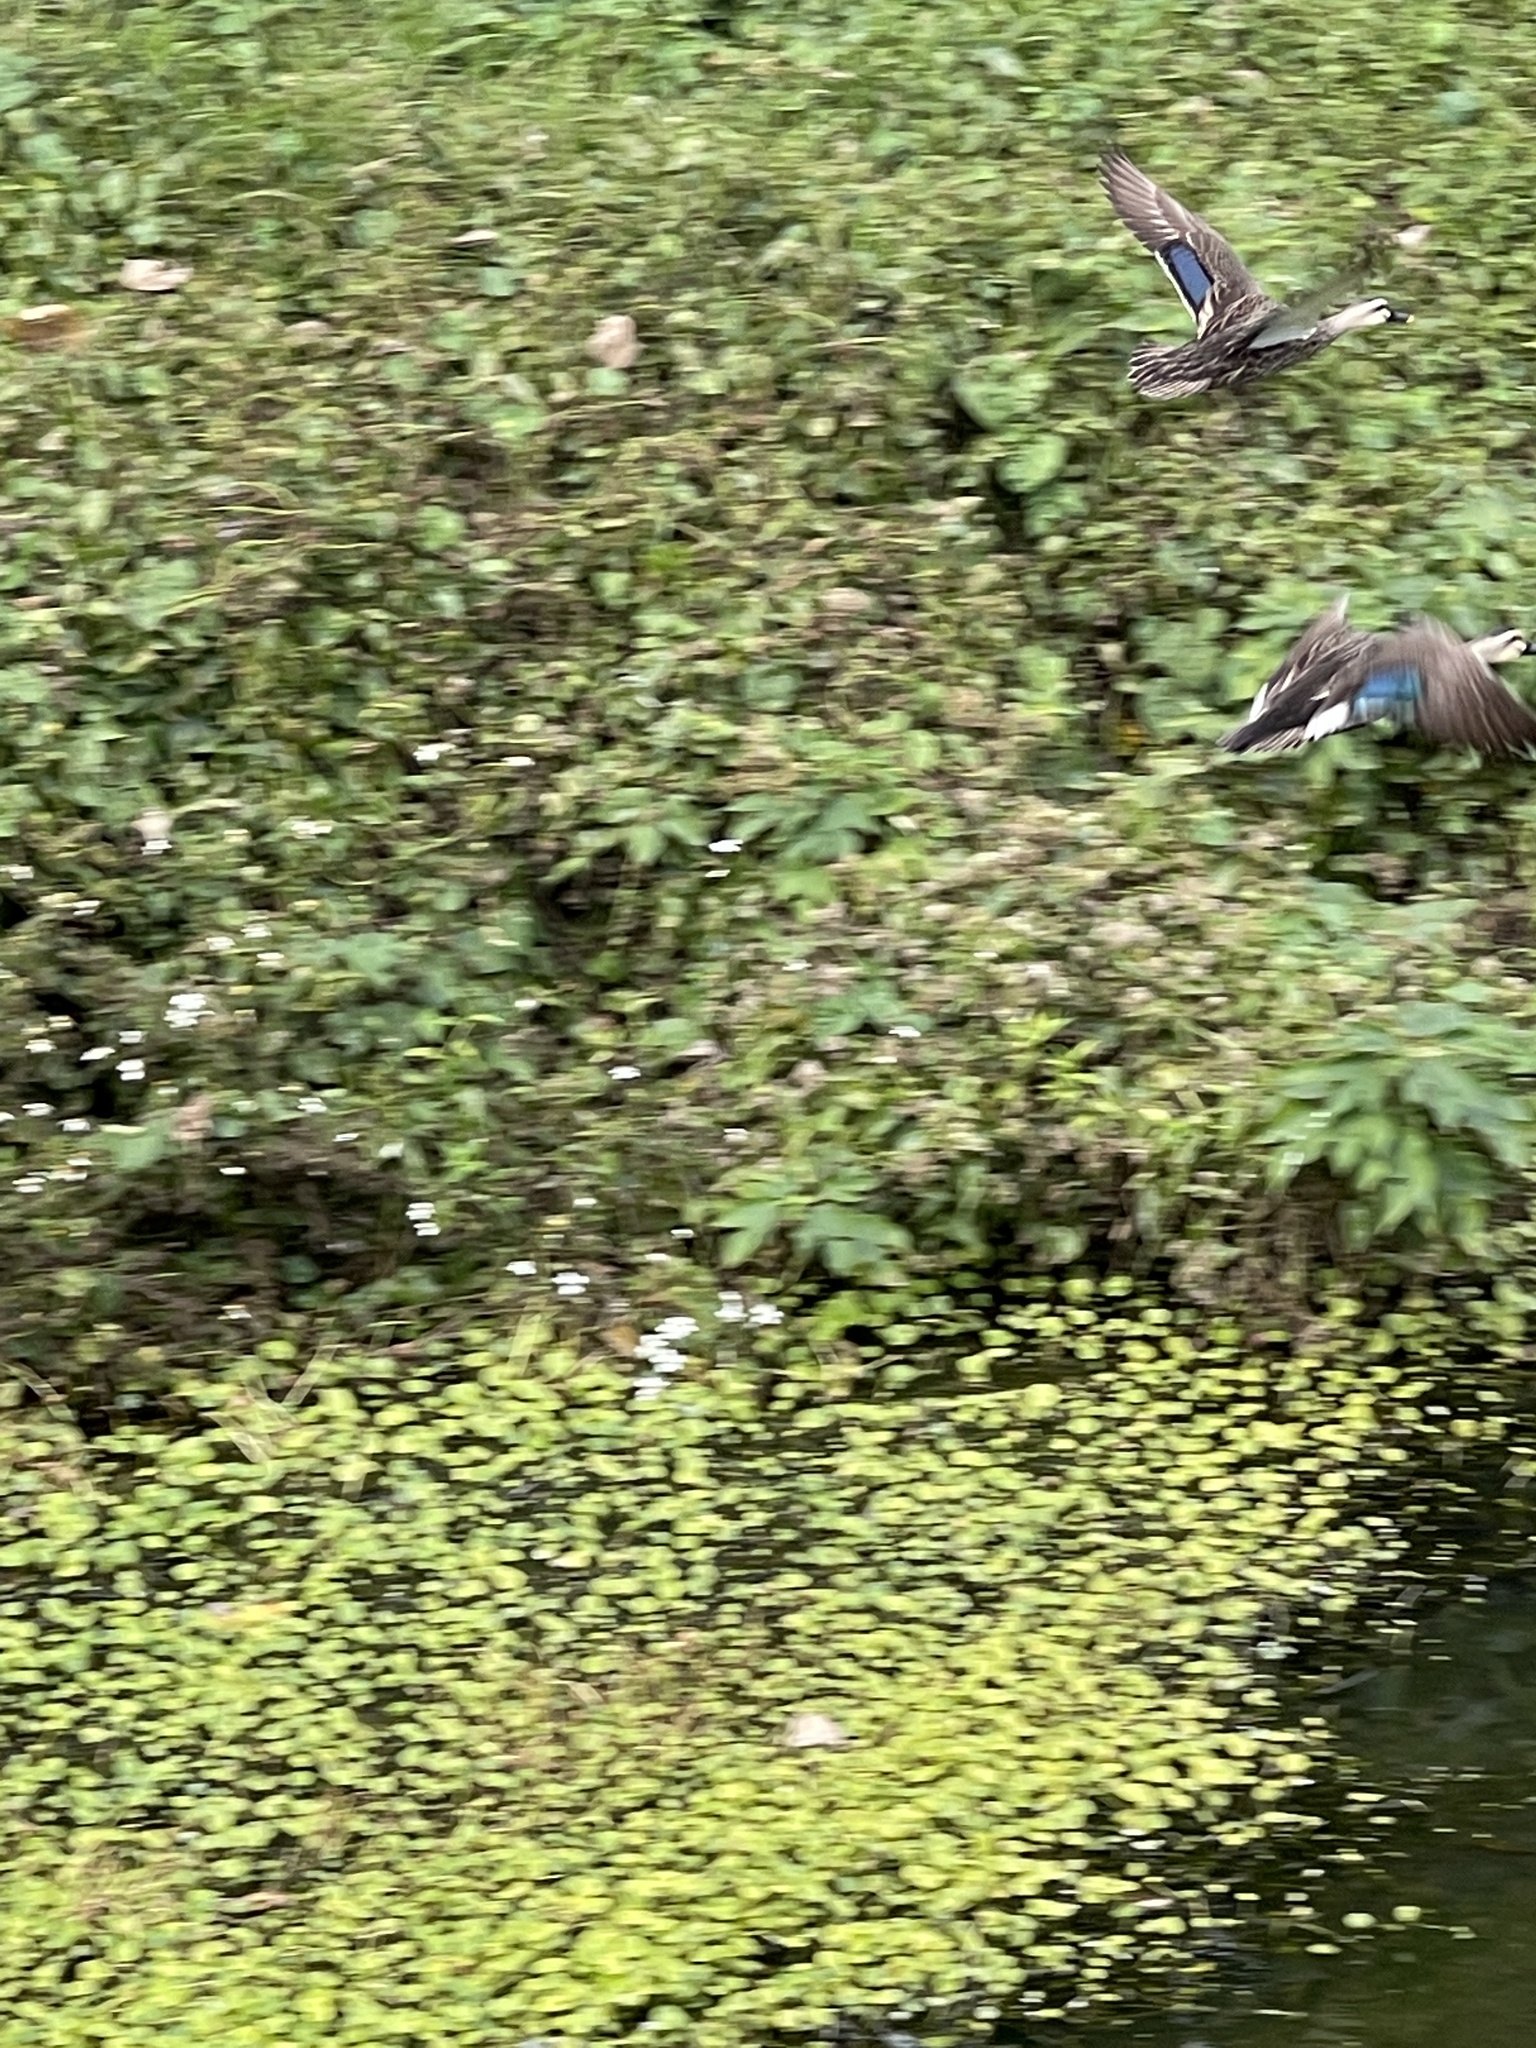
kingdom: Animalia
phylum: Chordata
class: Aves
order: Anseriformes
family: Anatidae
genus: Anas
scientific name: Anas zonorhyncha
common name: Eastern spot-billed duck
